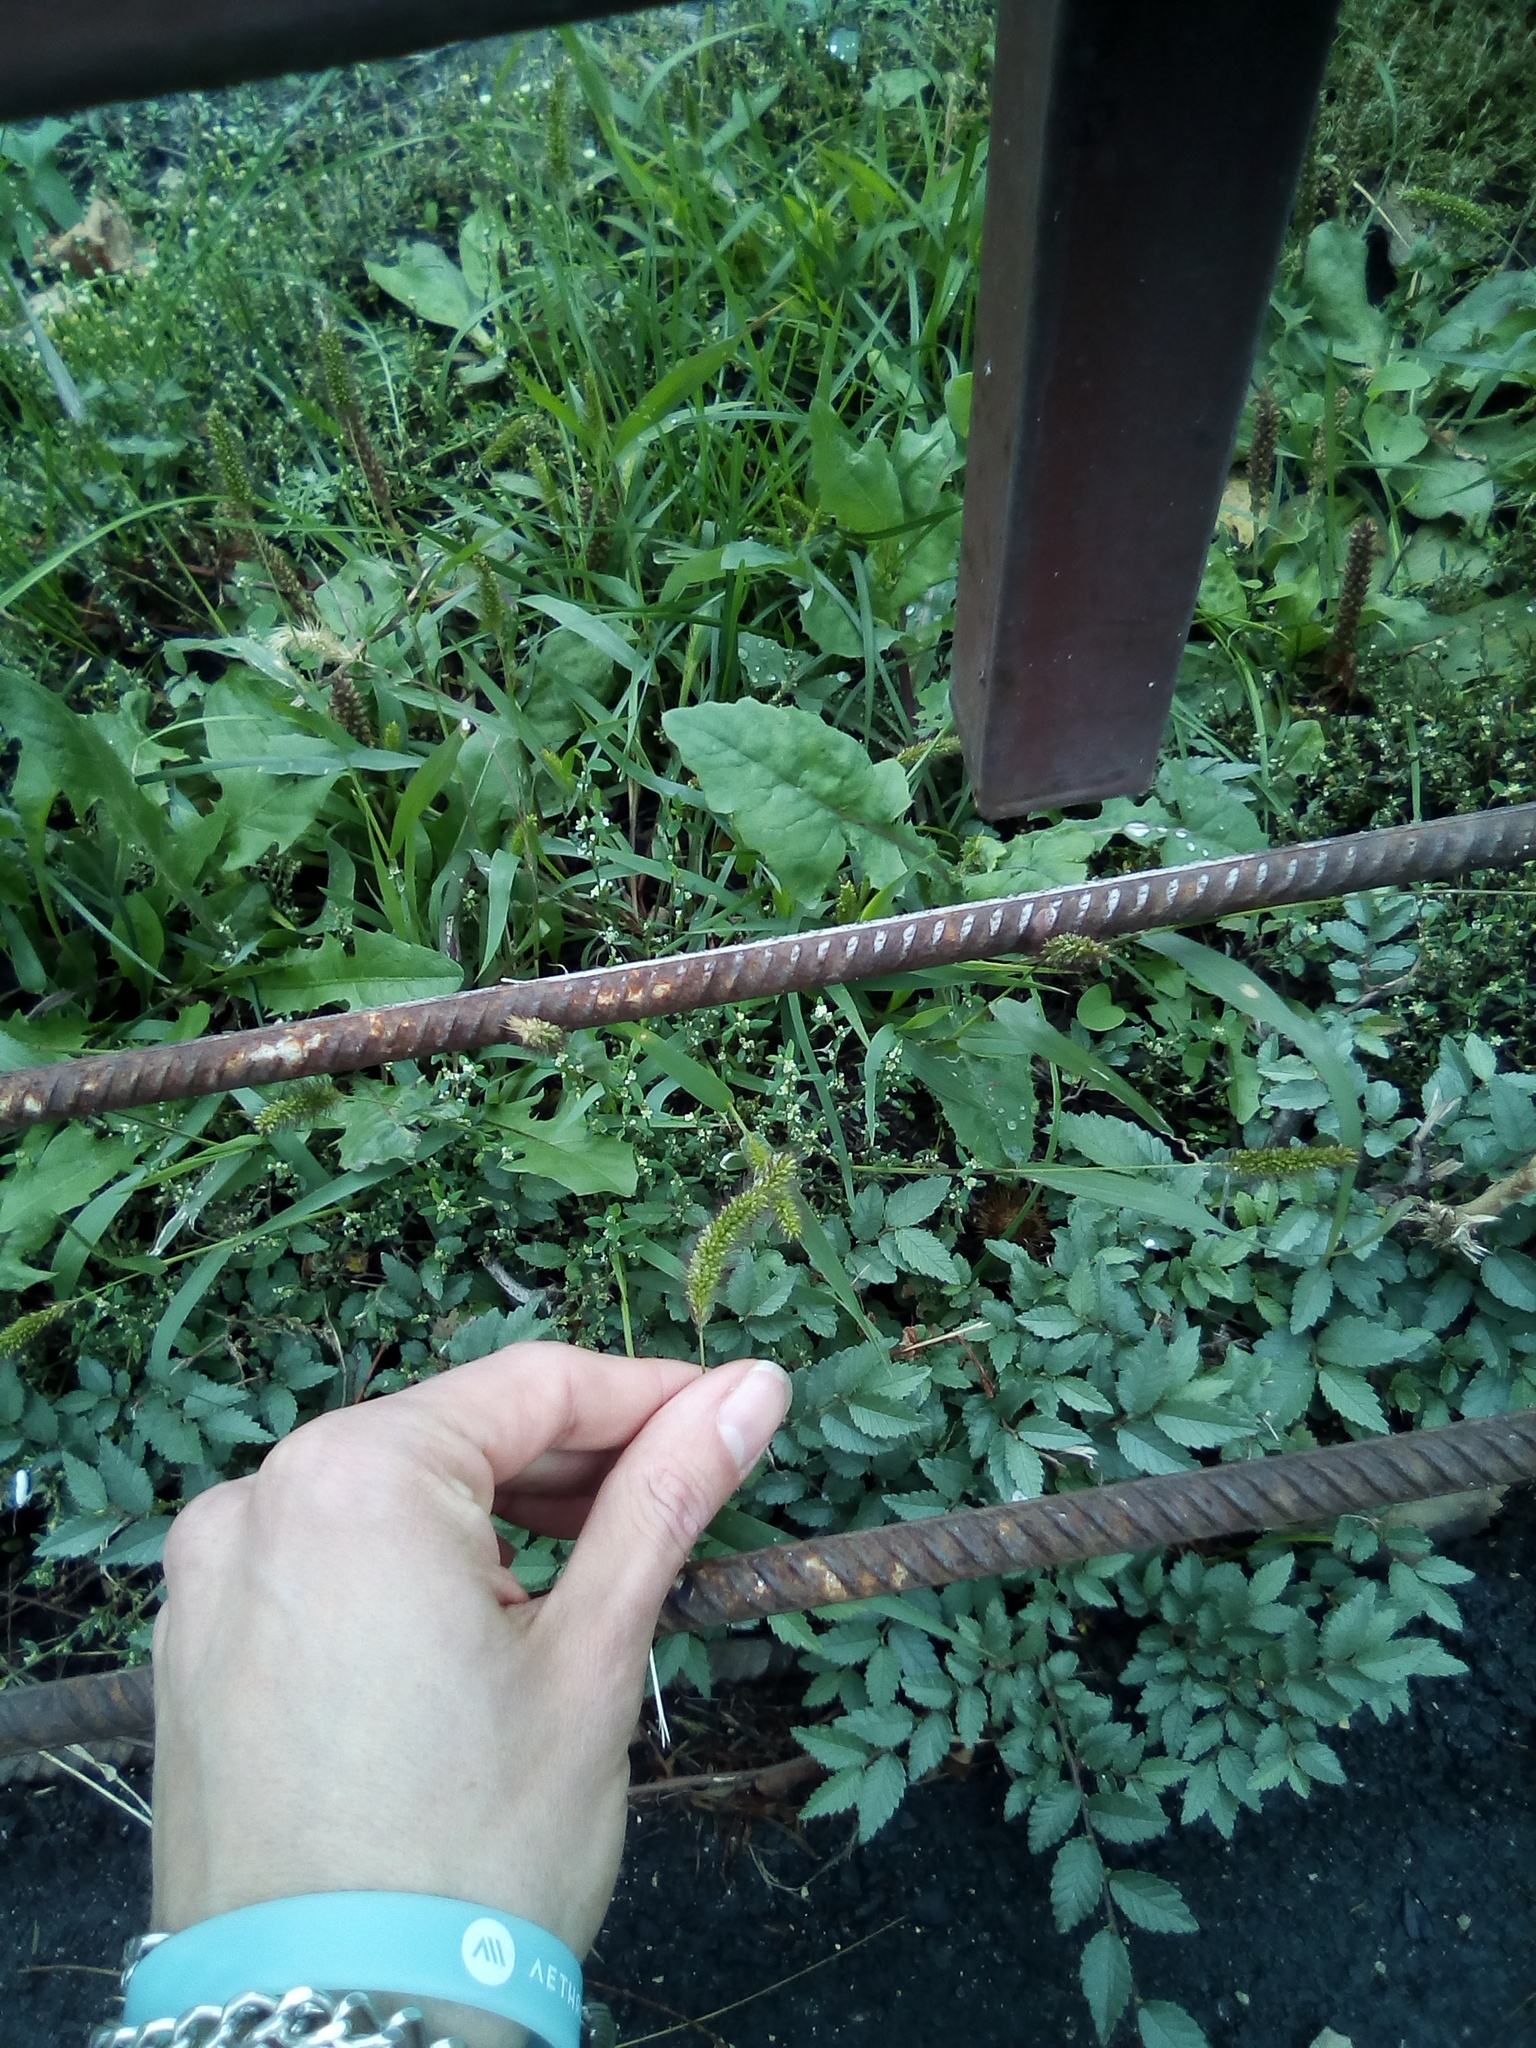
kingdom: Plantae
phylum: Tracheophyta
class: Liliopsida
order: Poales
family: Poaceae
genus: Setaria
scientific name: Setaria viridis
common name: Green bristlegrass
